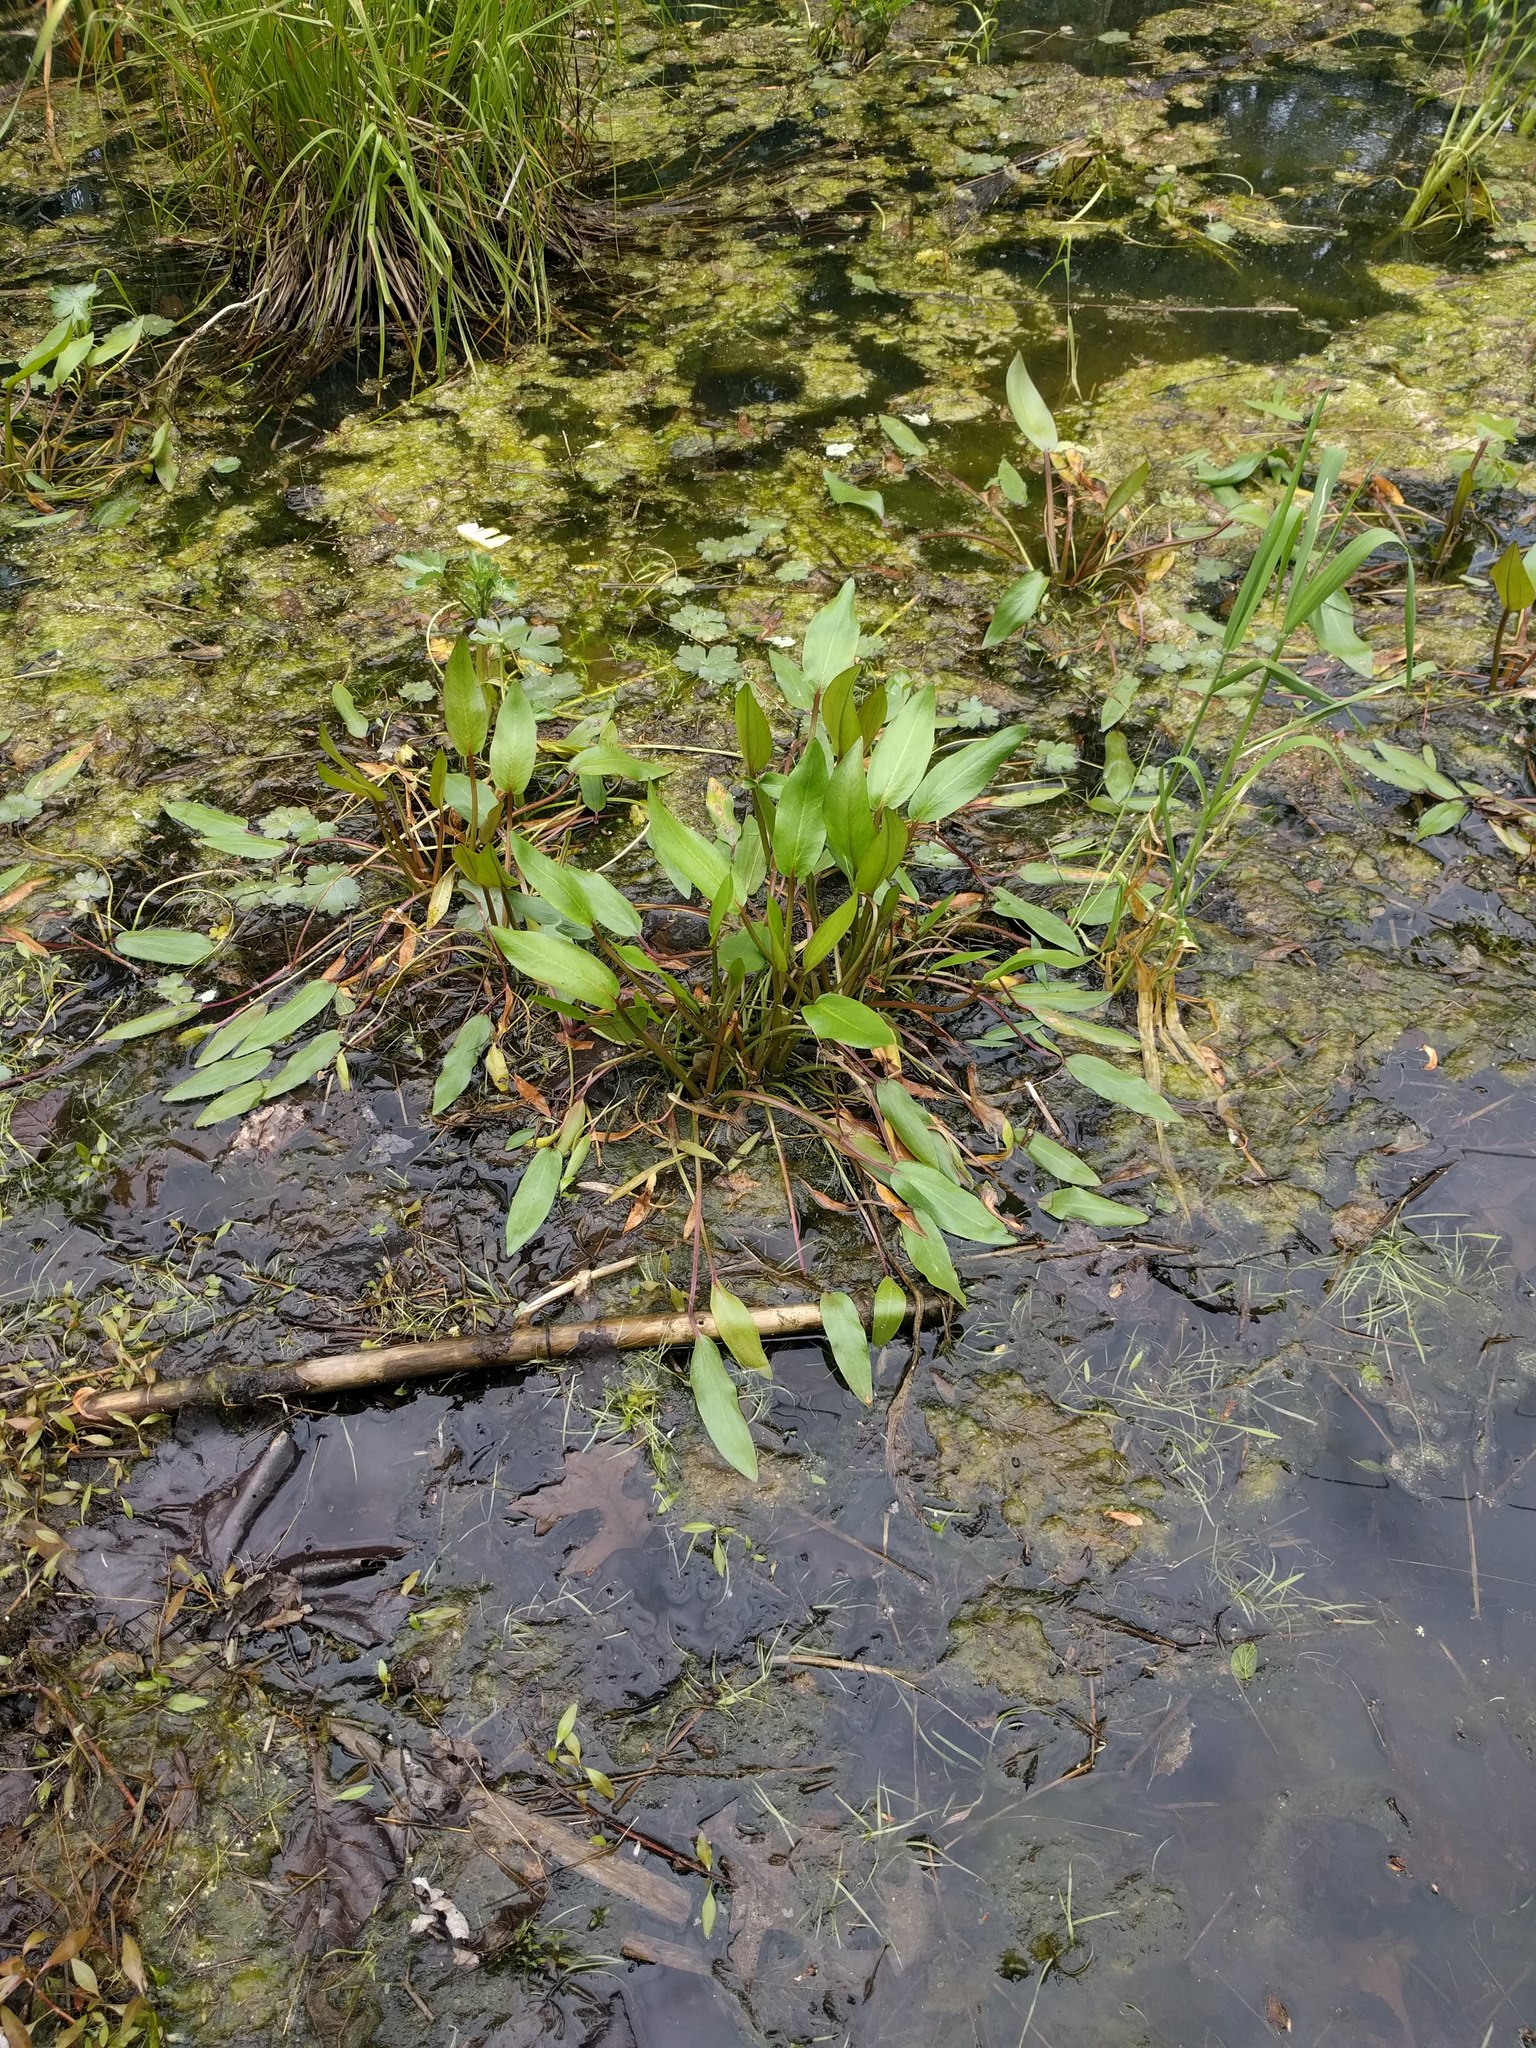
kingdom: Plantae
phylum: Tracheophyta
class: Liliopsida
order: Alismatales
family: Alismataceae
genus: Alisma
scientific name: Alisma subcordatum
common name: Southern water-plantain
